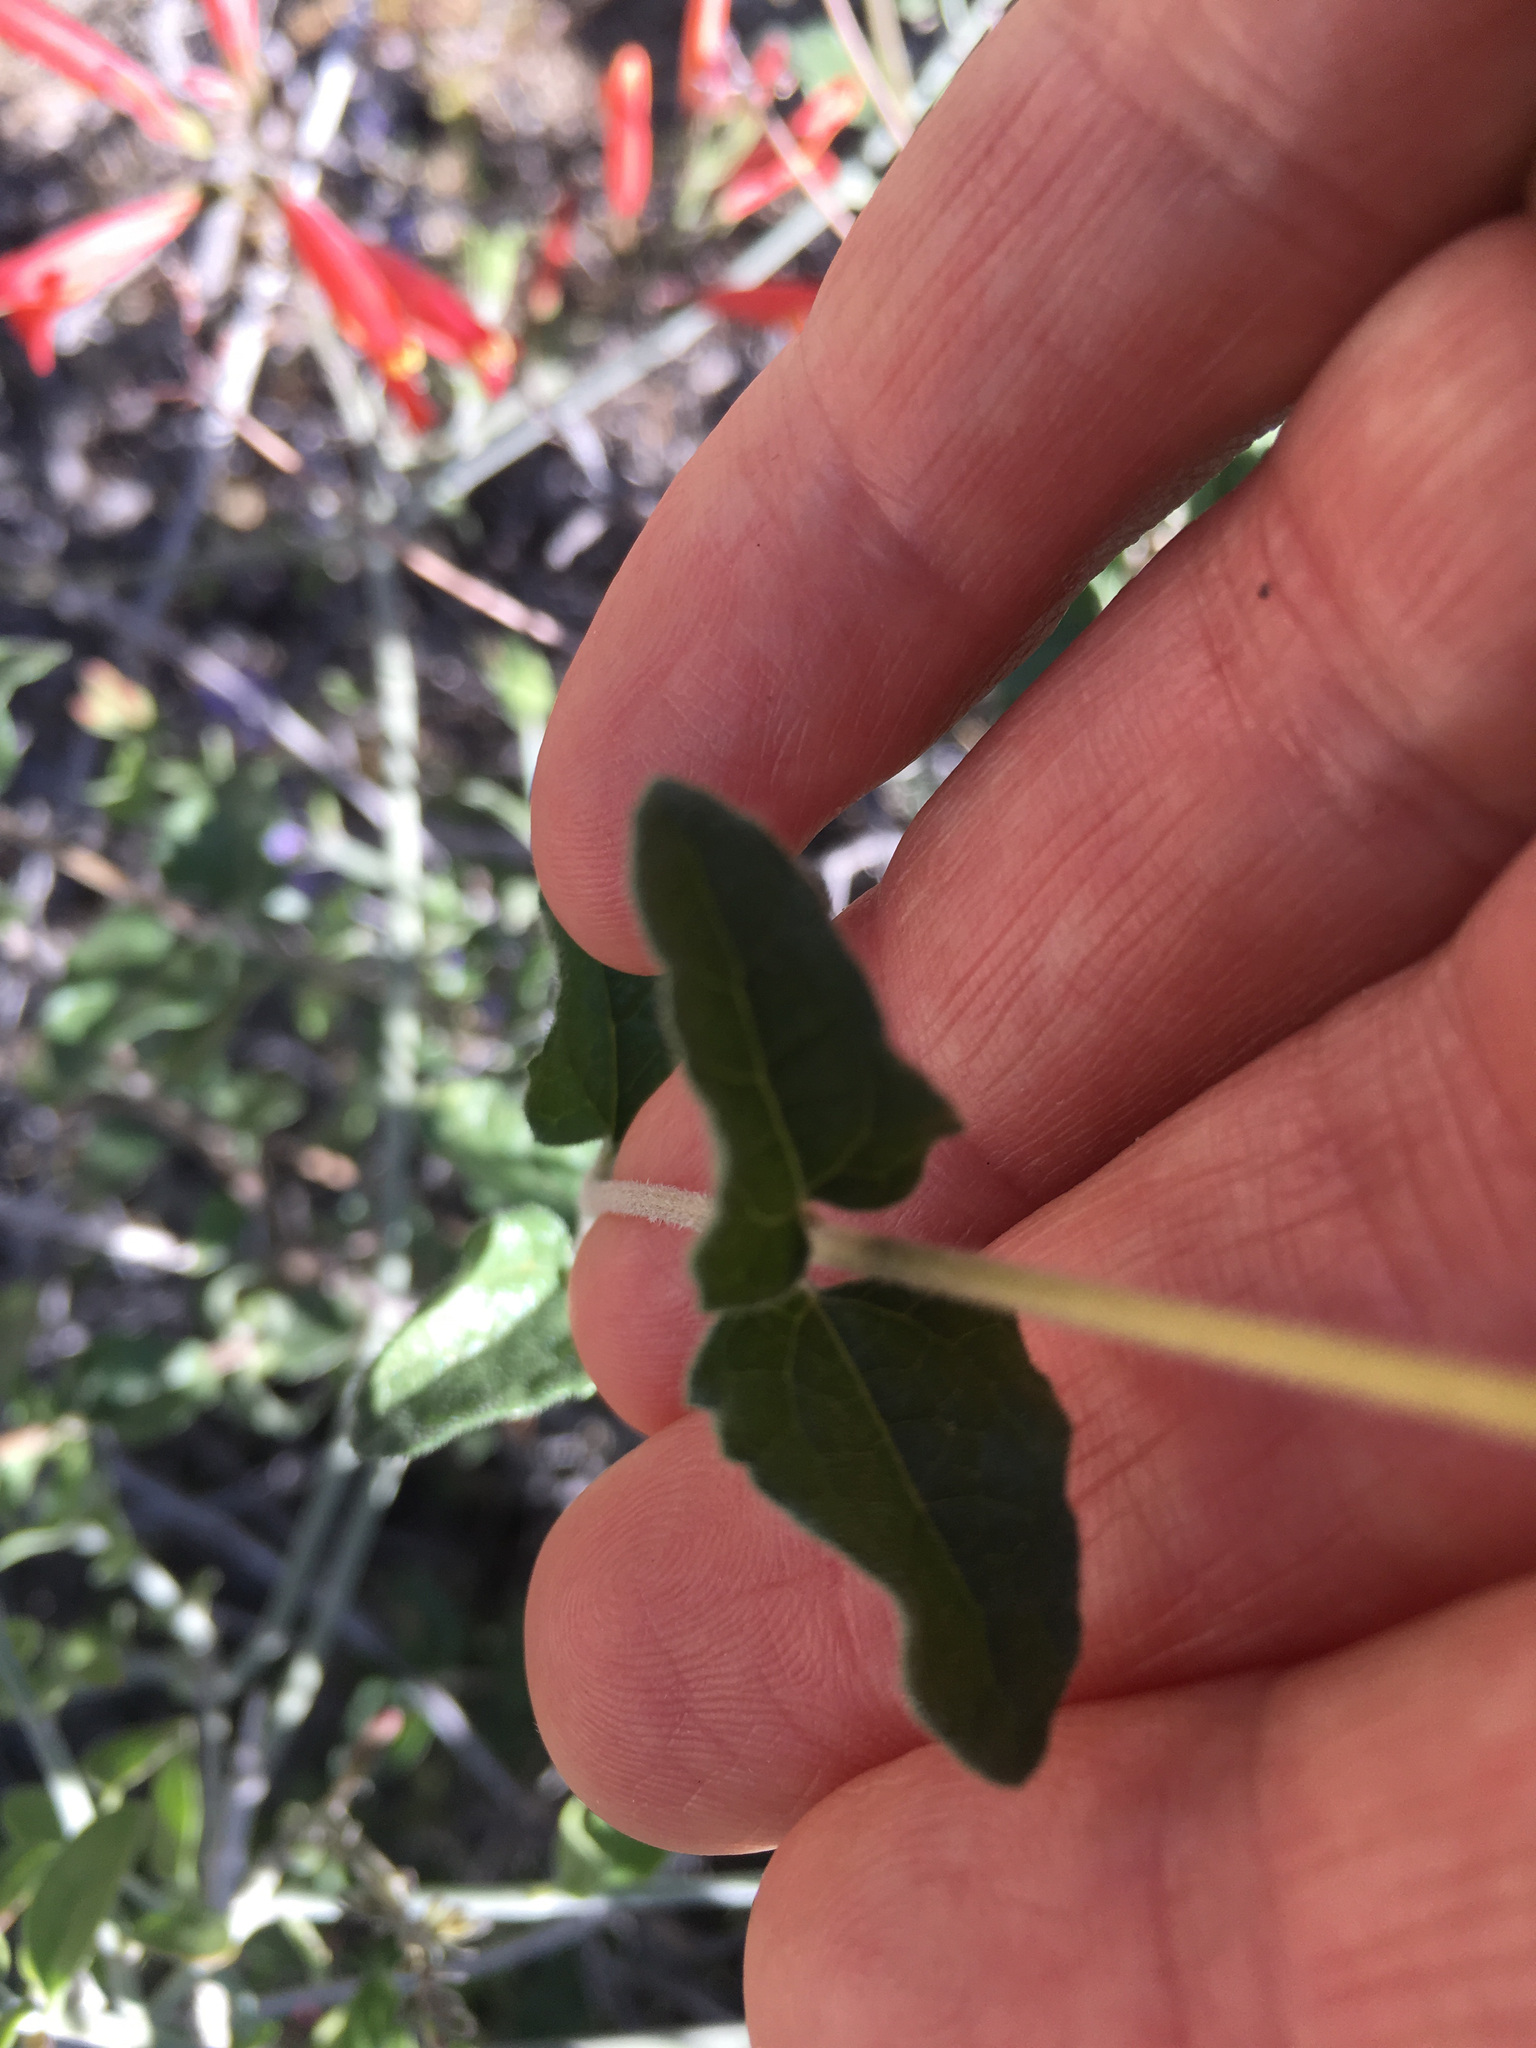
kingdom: Plantae
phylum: Tracheophyta
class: Magnoliopsida
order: Asterales
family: Asteraceae
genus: Bahiopsis
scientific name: Bahiopsis parishii
